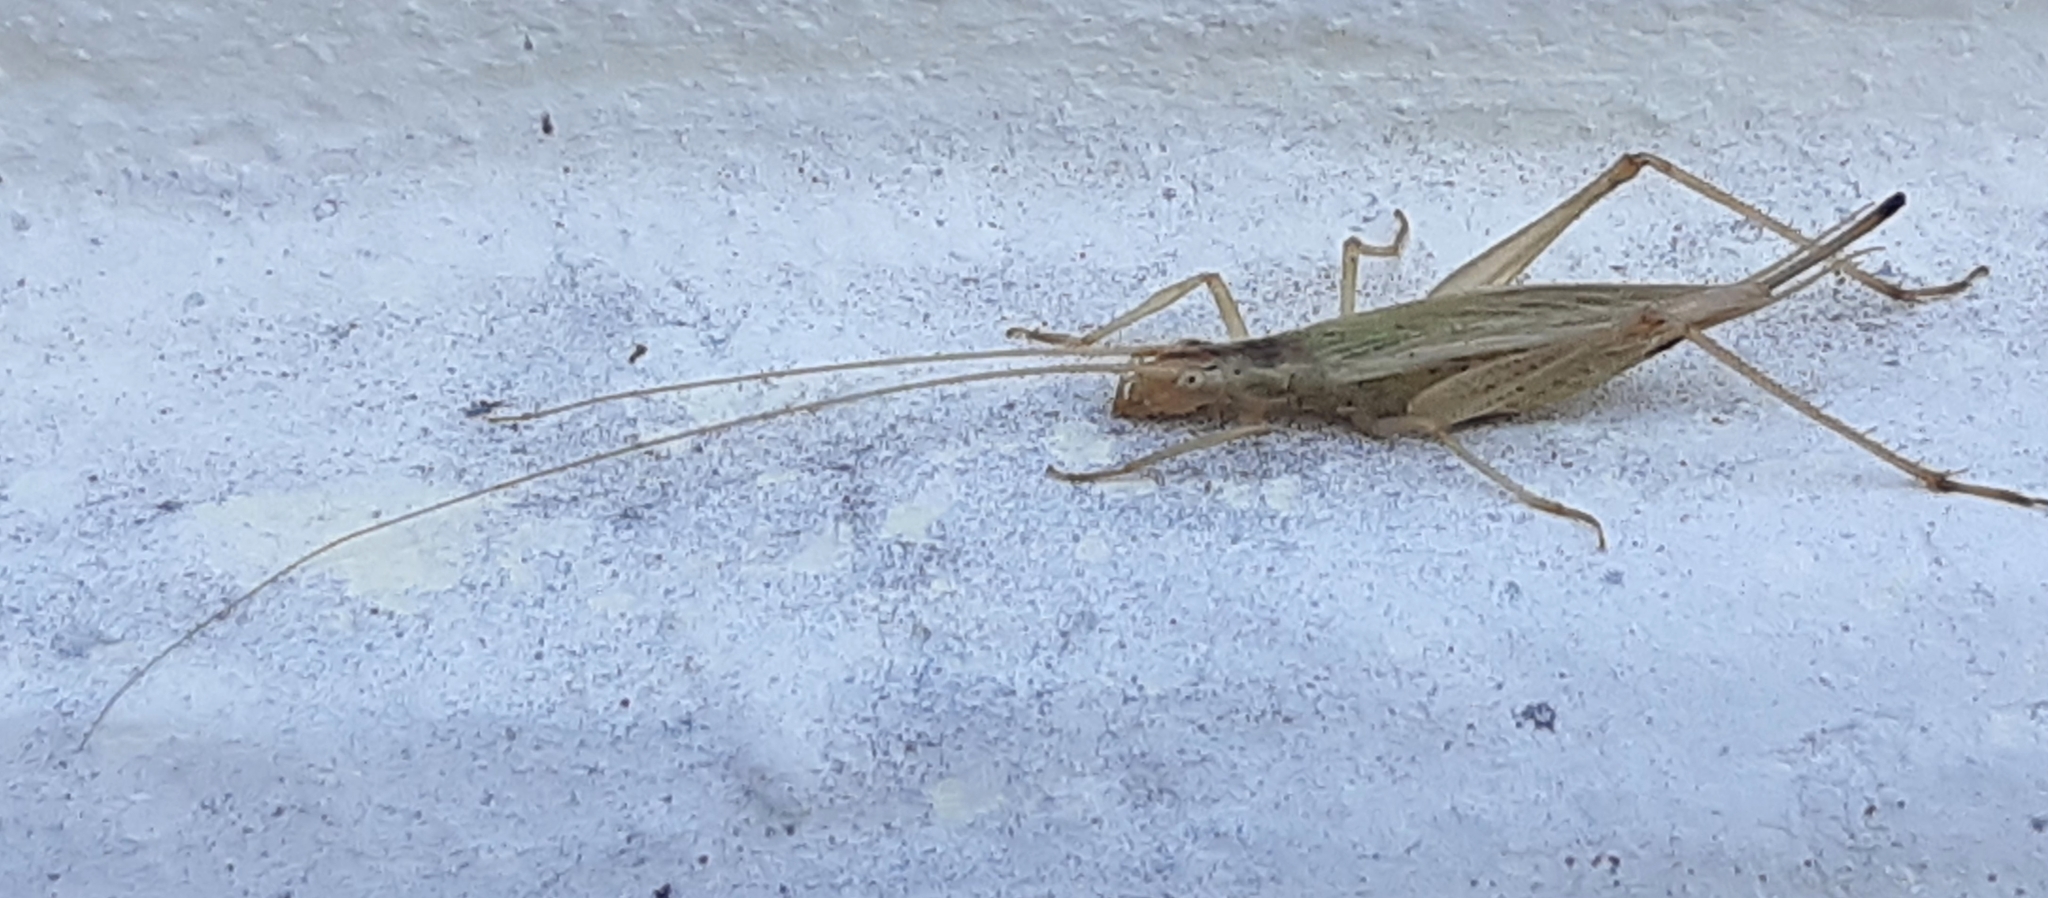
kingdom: Animalia
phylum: Arthropoda
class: Insecta
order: Orthoptera
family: Gryllidae
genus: Oecanthus
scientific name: Oecanthus pellucens
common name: Tree-cricket
